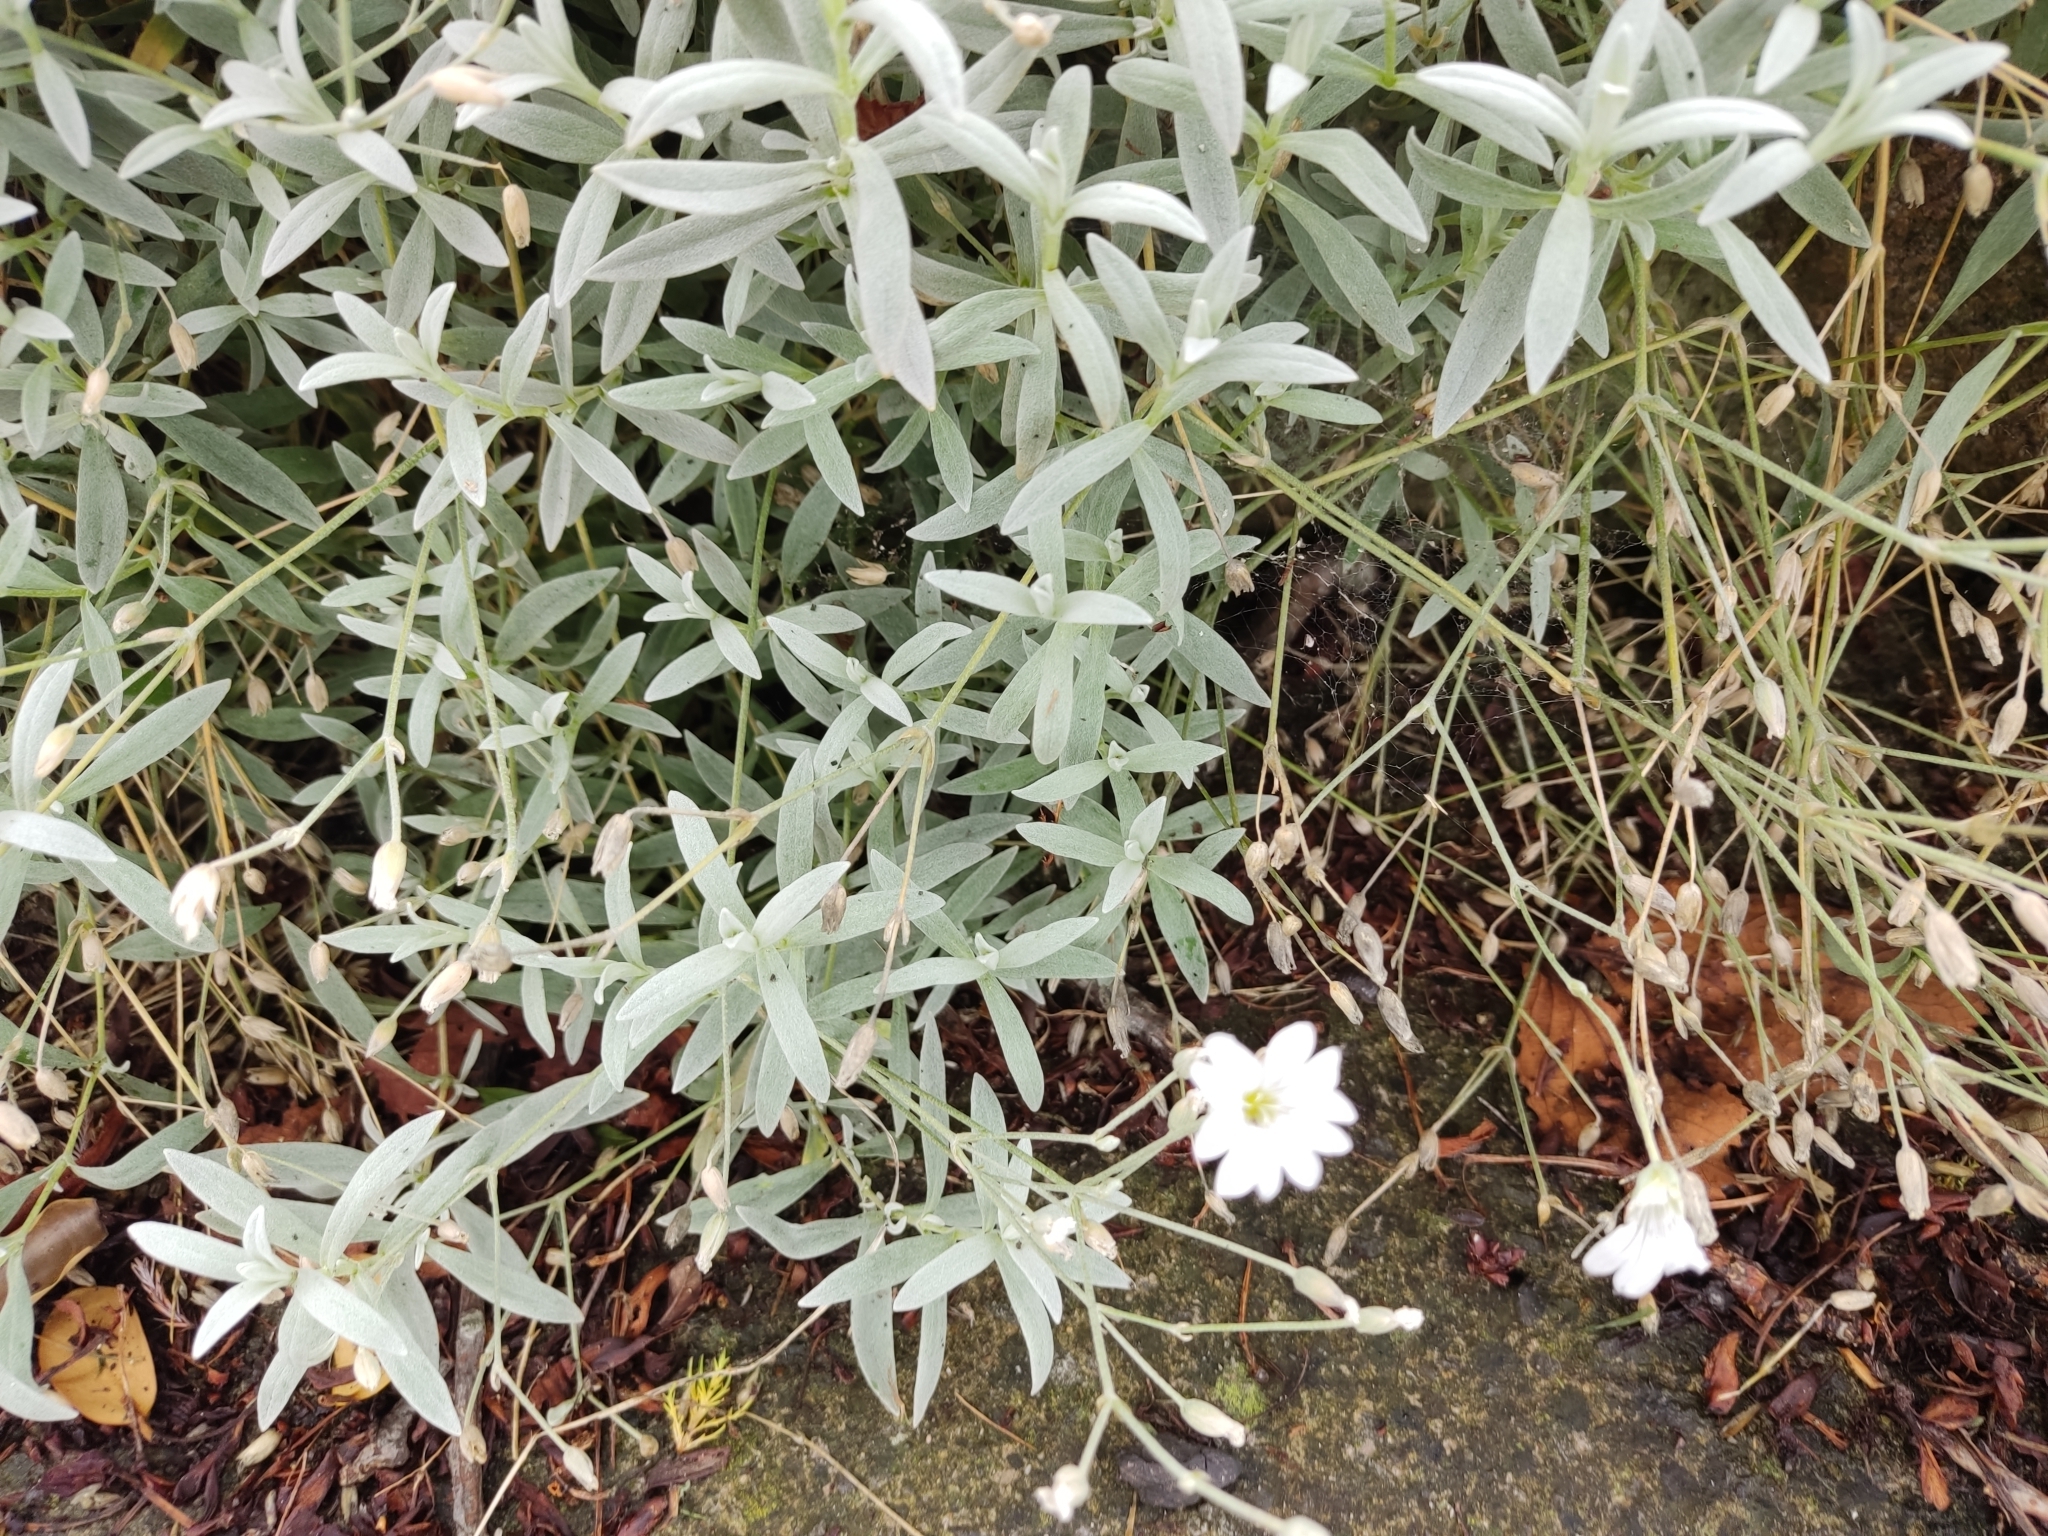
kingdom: Plantae
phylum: Tracheophyta
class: Magnoliopsida
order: Caryophyllales
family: Caryophyllaceae
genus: Cerastium
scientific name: Cerastium tomentosum
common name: Snow-in-summer
